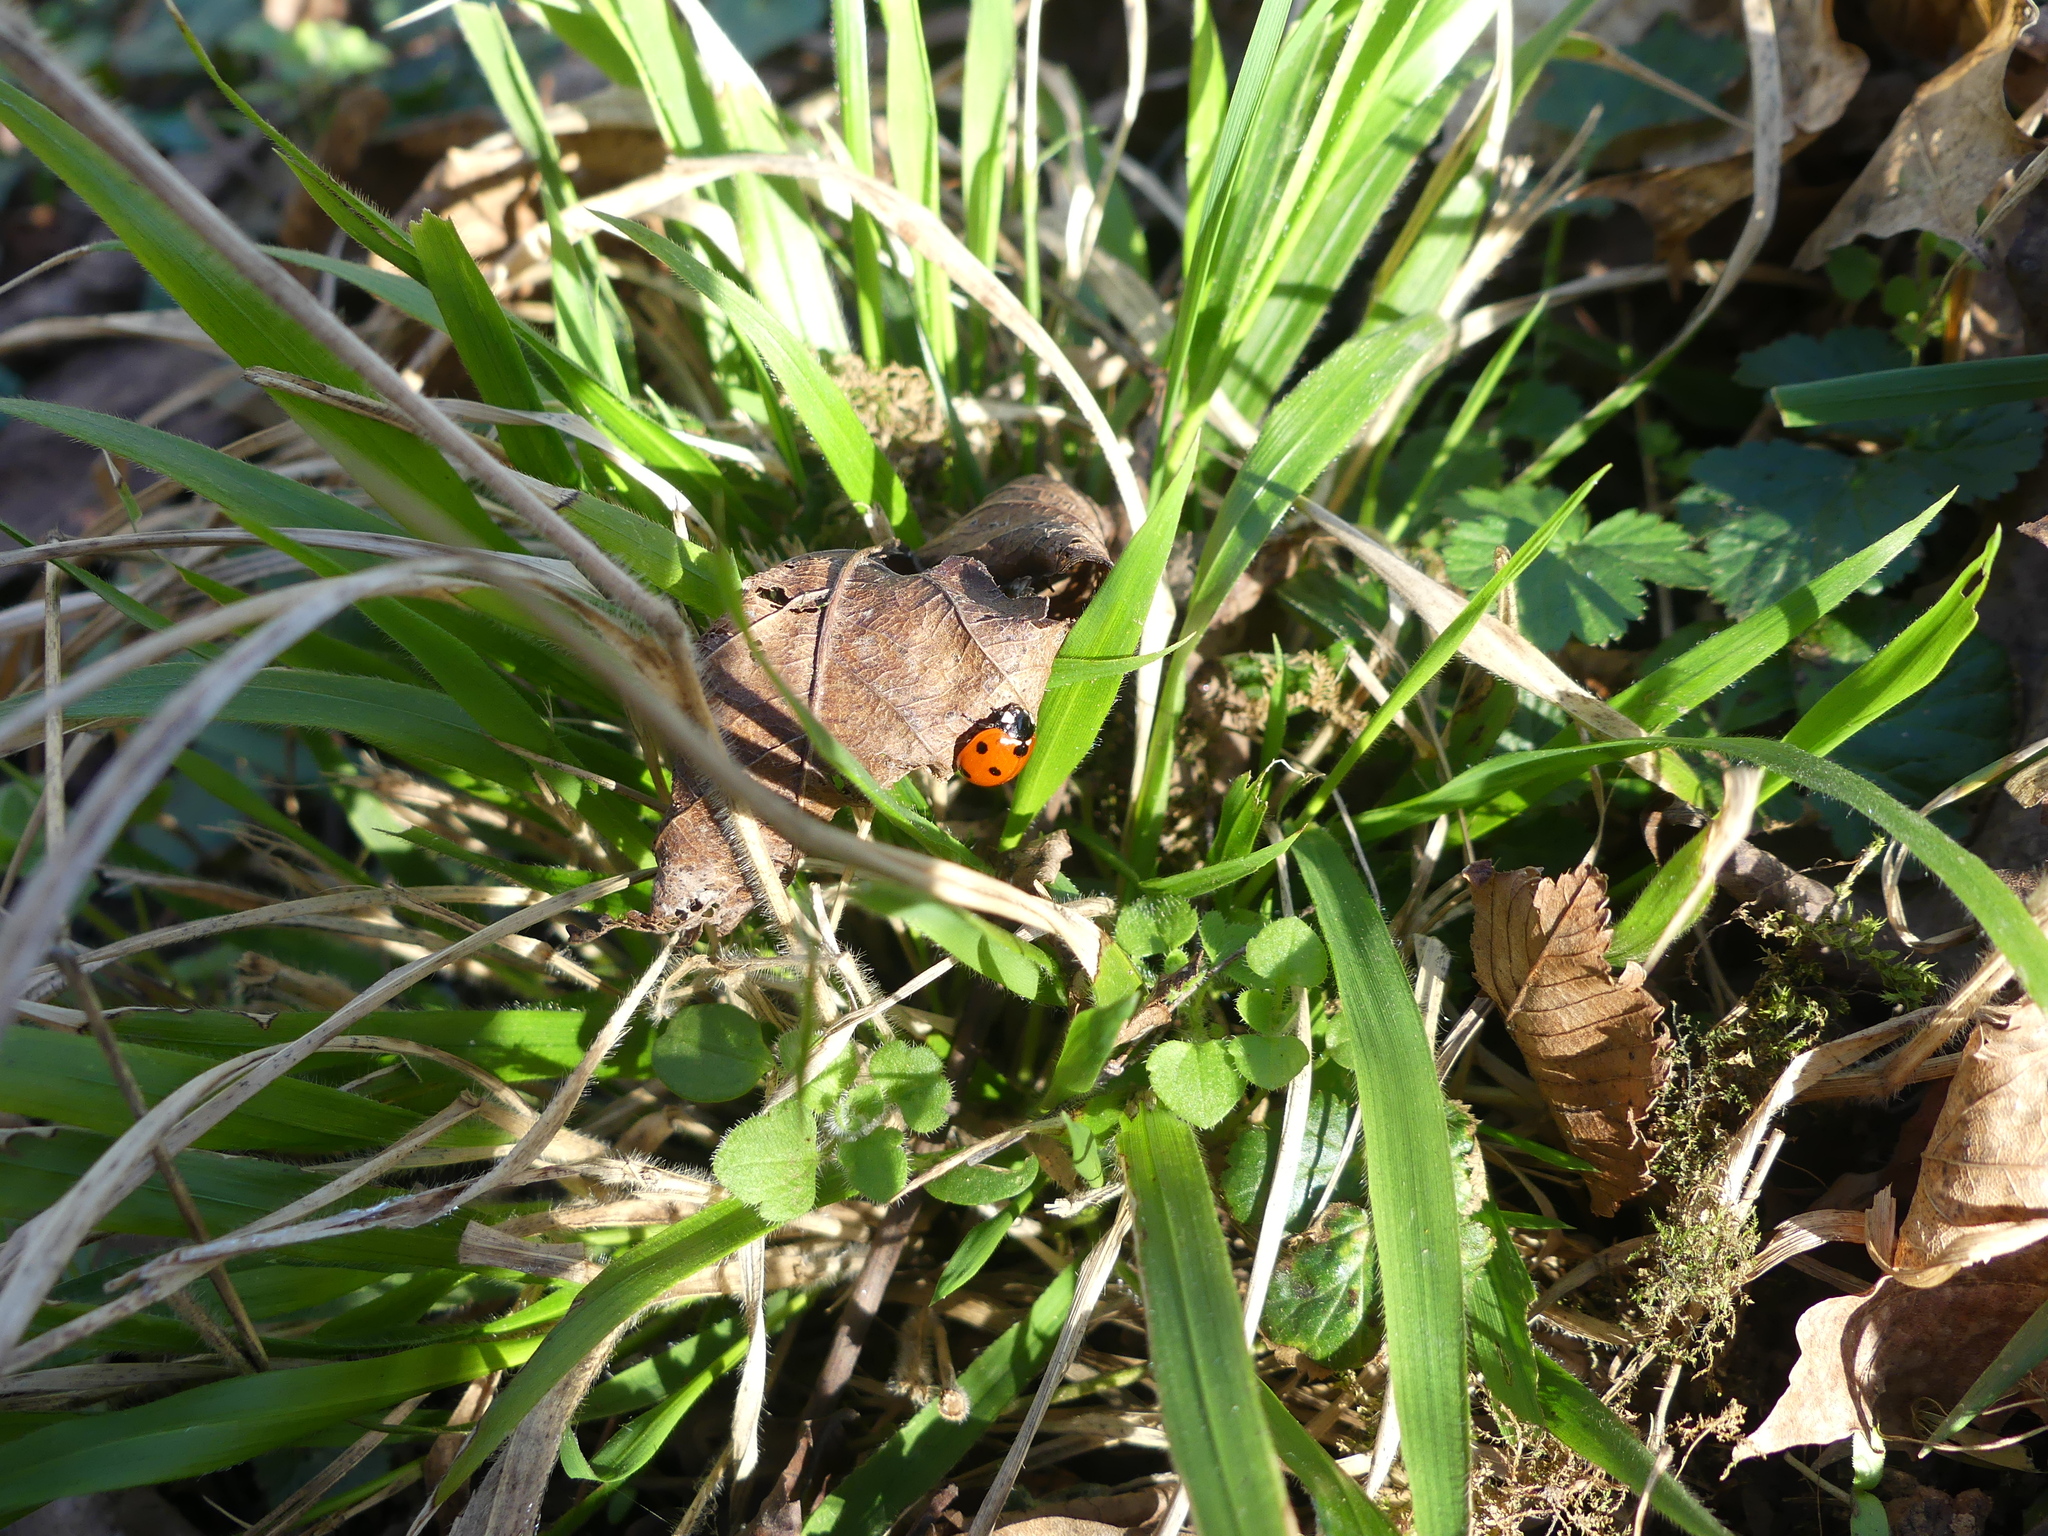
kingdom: Animalia
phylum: Arthropoda
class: Insecta
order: Coleoptera
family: Coccinellidae
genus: Coccinella
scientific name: Coccinella septempunctata
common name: Sevenspotted lady beetle
